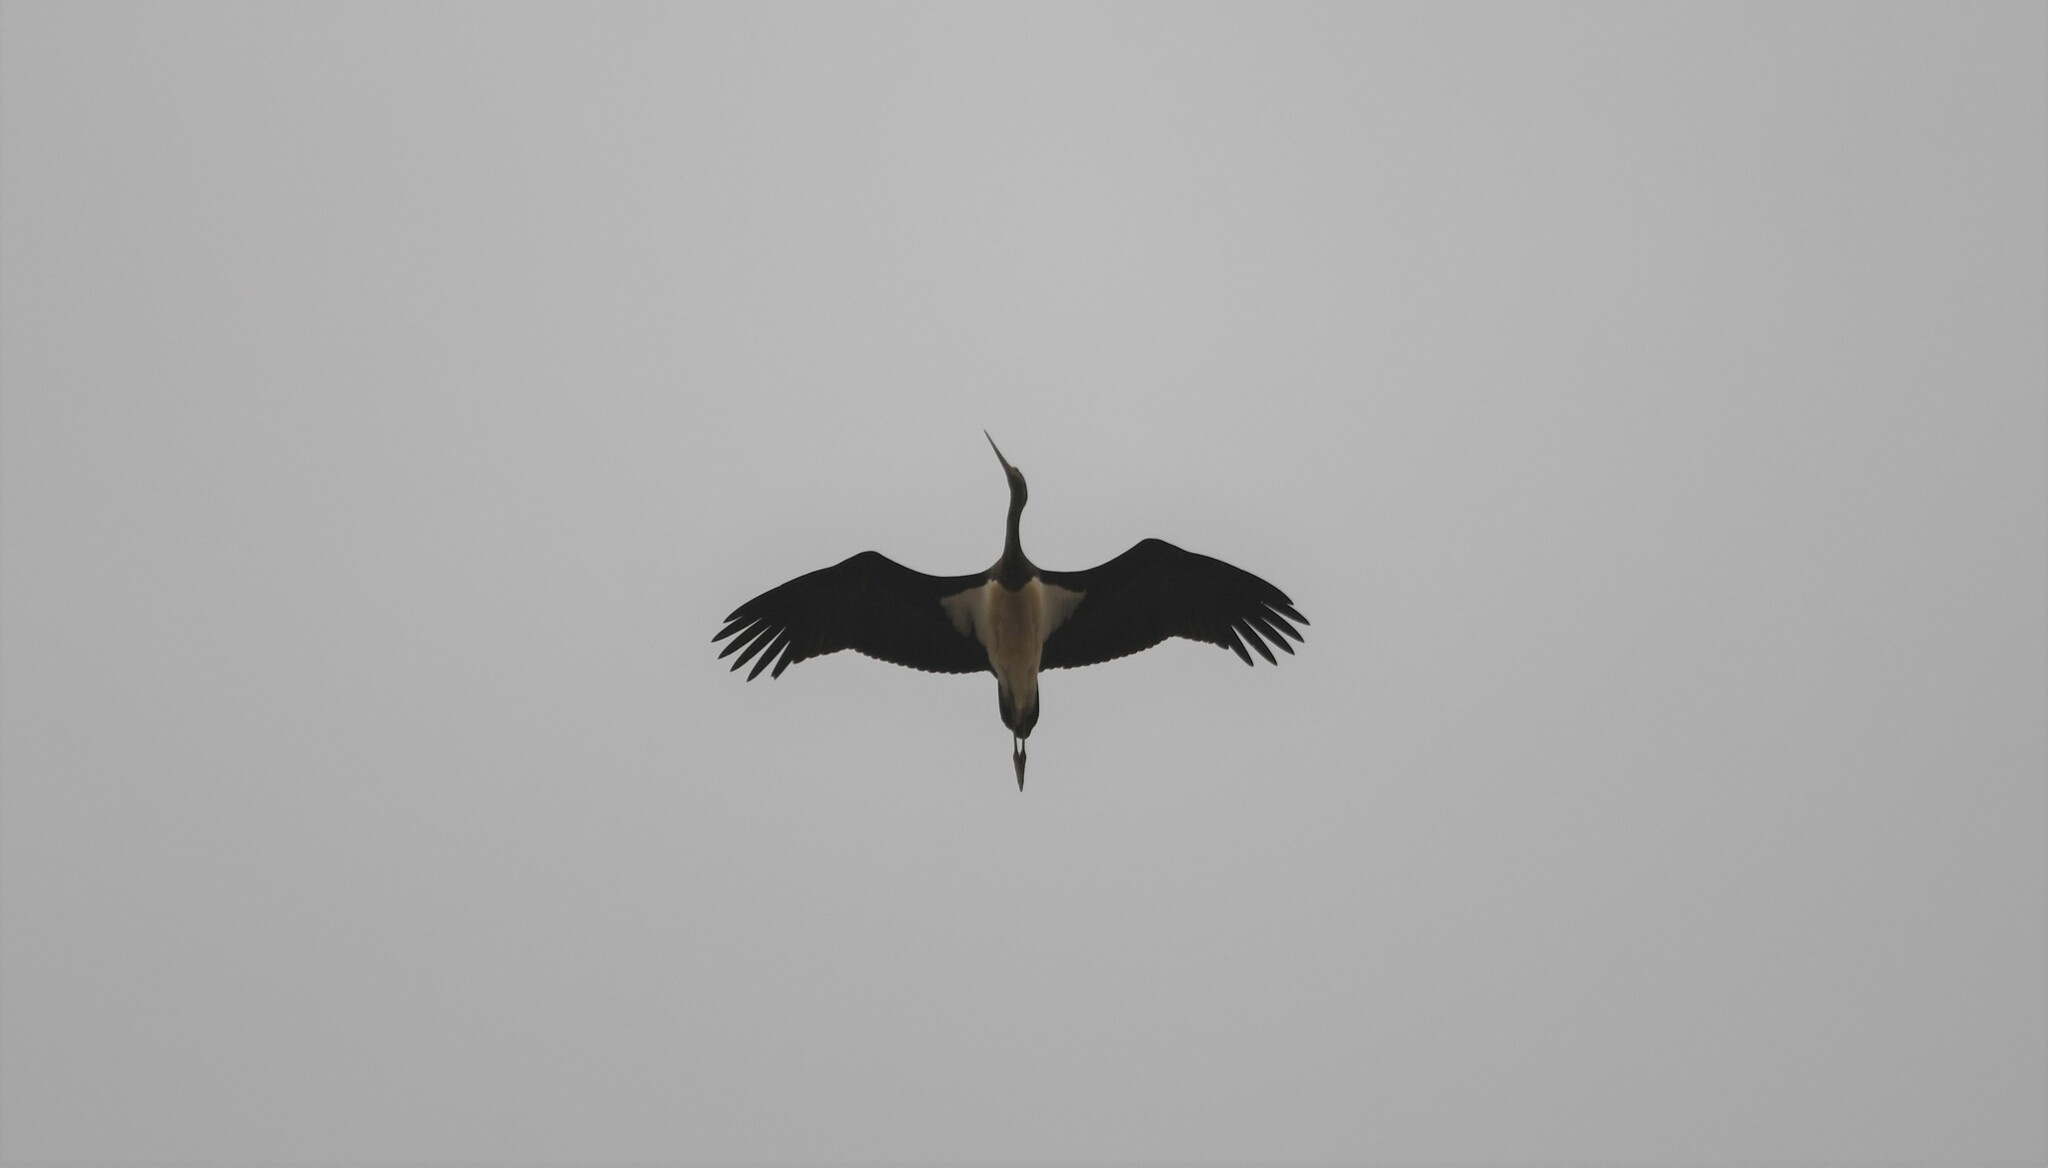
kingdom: Animalia
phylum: Chordata
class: Aves
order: Ciconiiformes
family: Ciconiidae
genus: Ciconia
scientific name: Ciconia nigra
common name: Black stork
